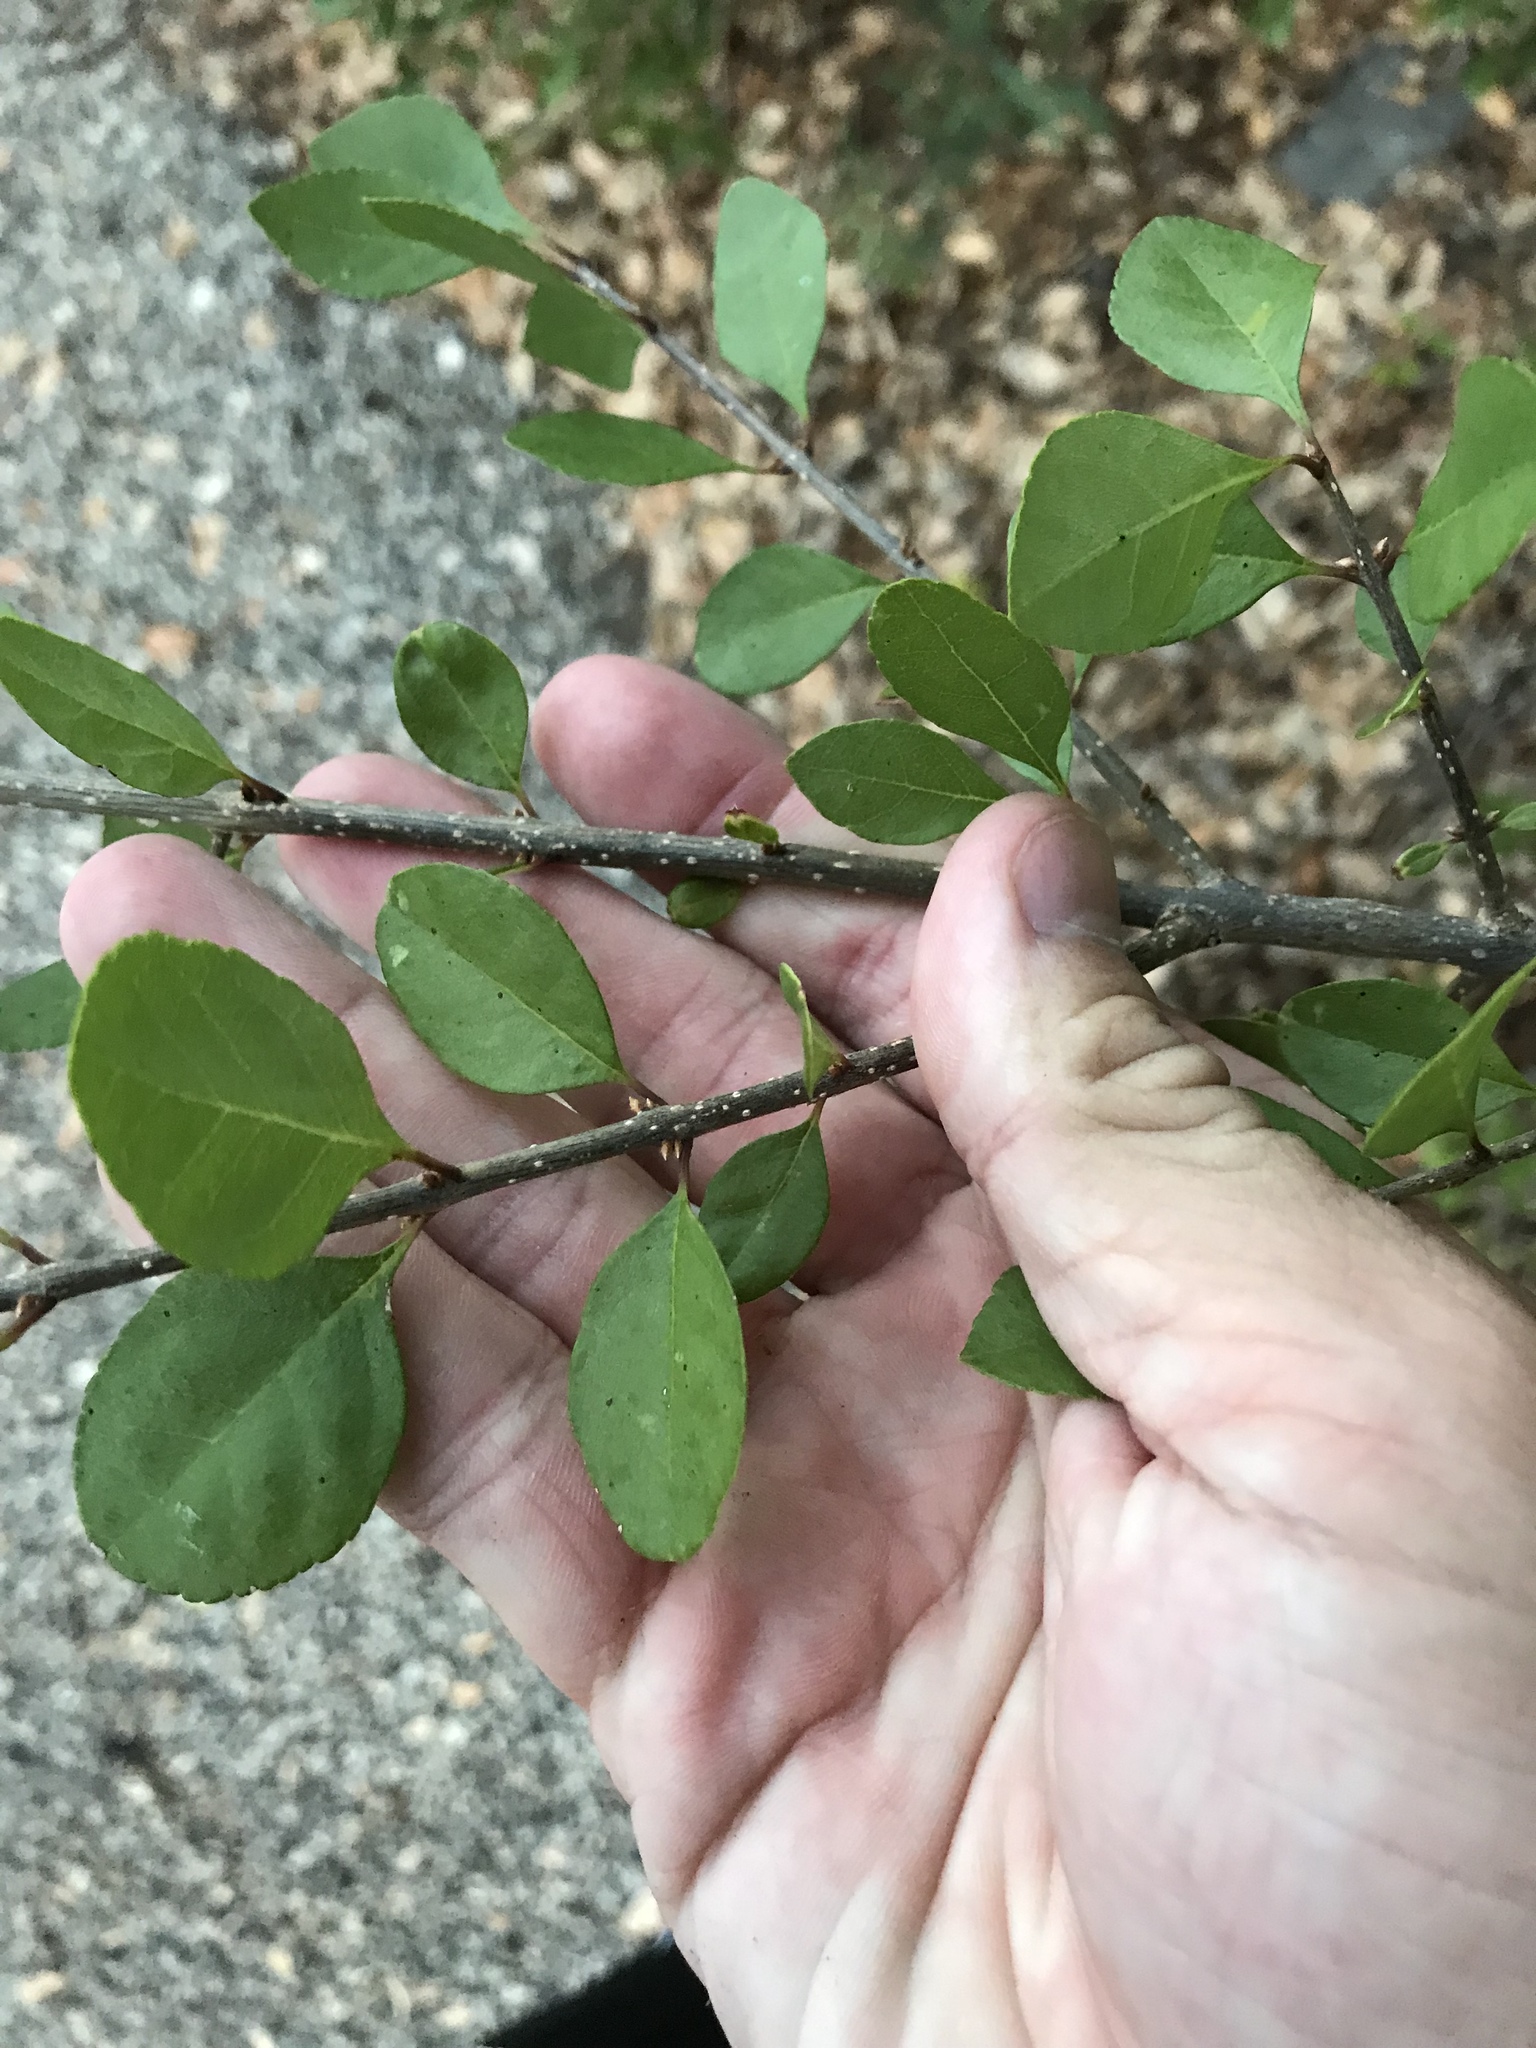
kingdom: Plantae
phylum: Tracheophyta
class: Magnoliopsida
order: Lamiales
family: Oleaceae
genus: Forestiera
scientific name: Forestiera pubescens
